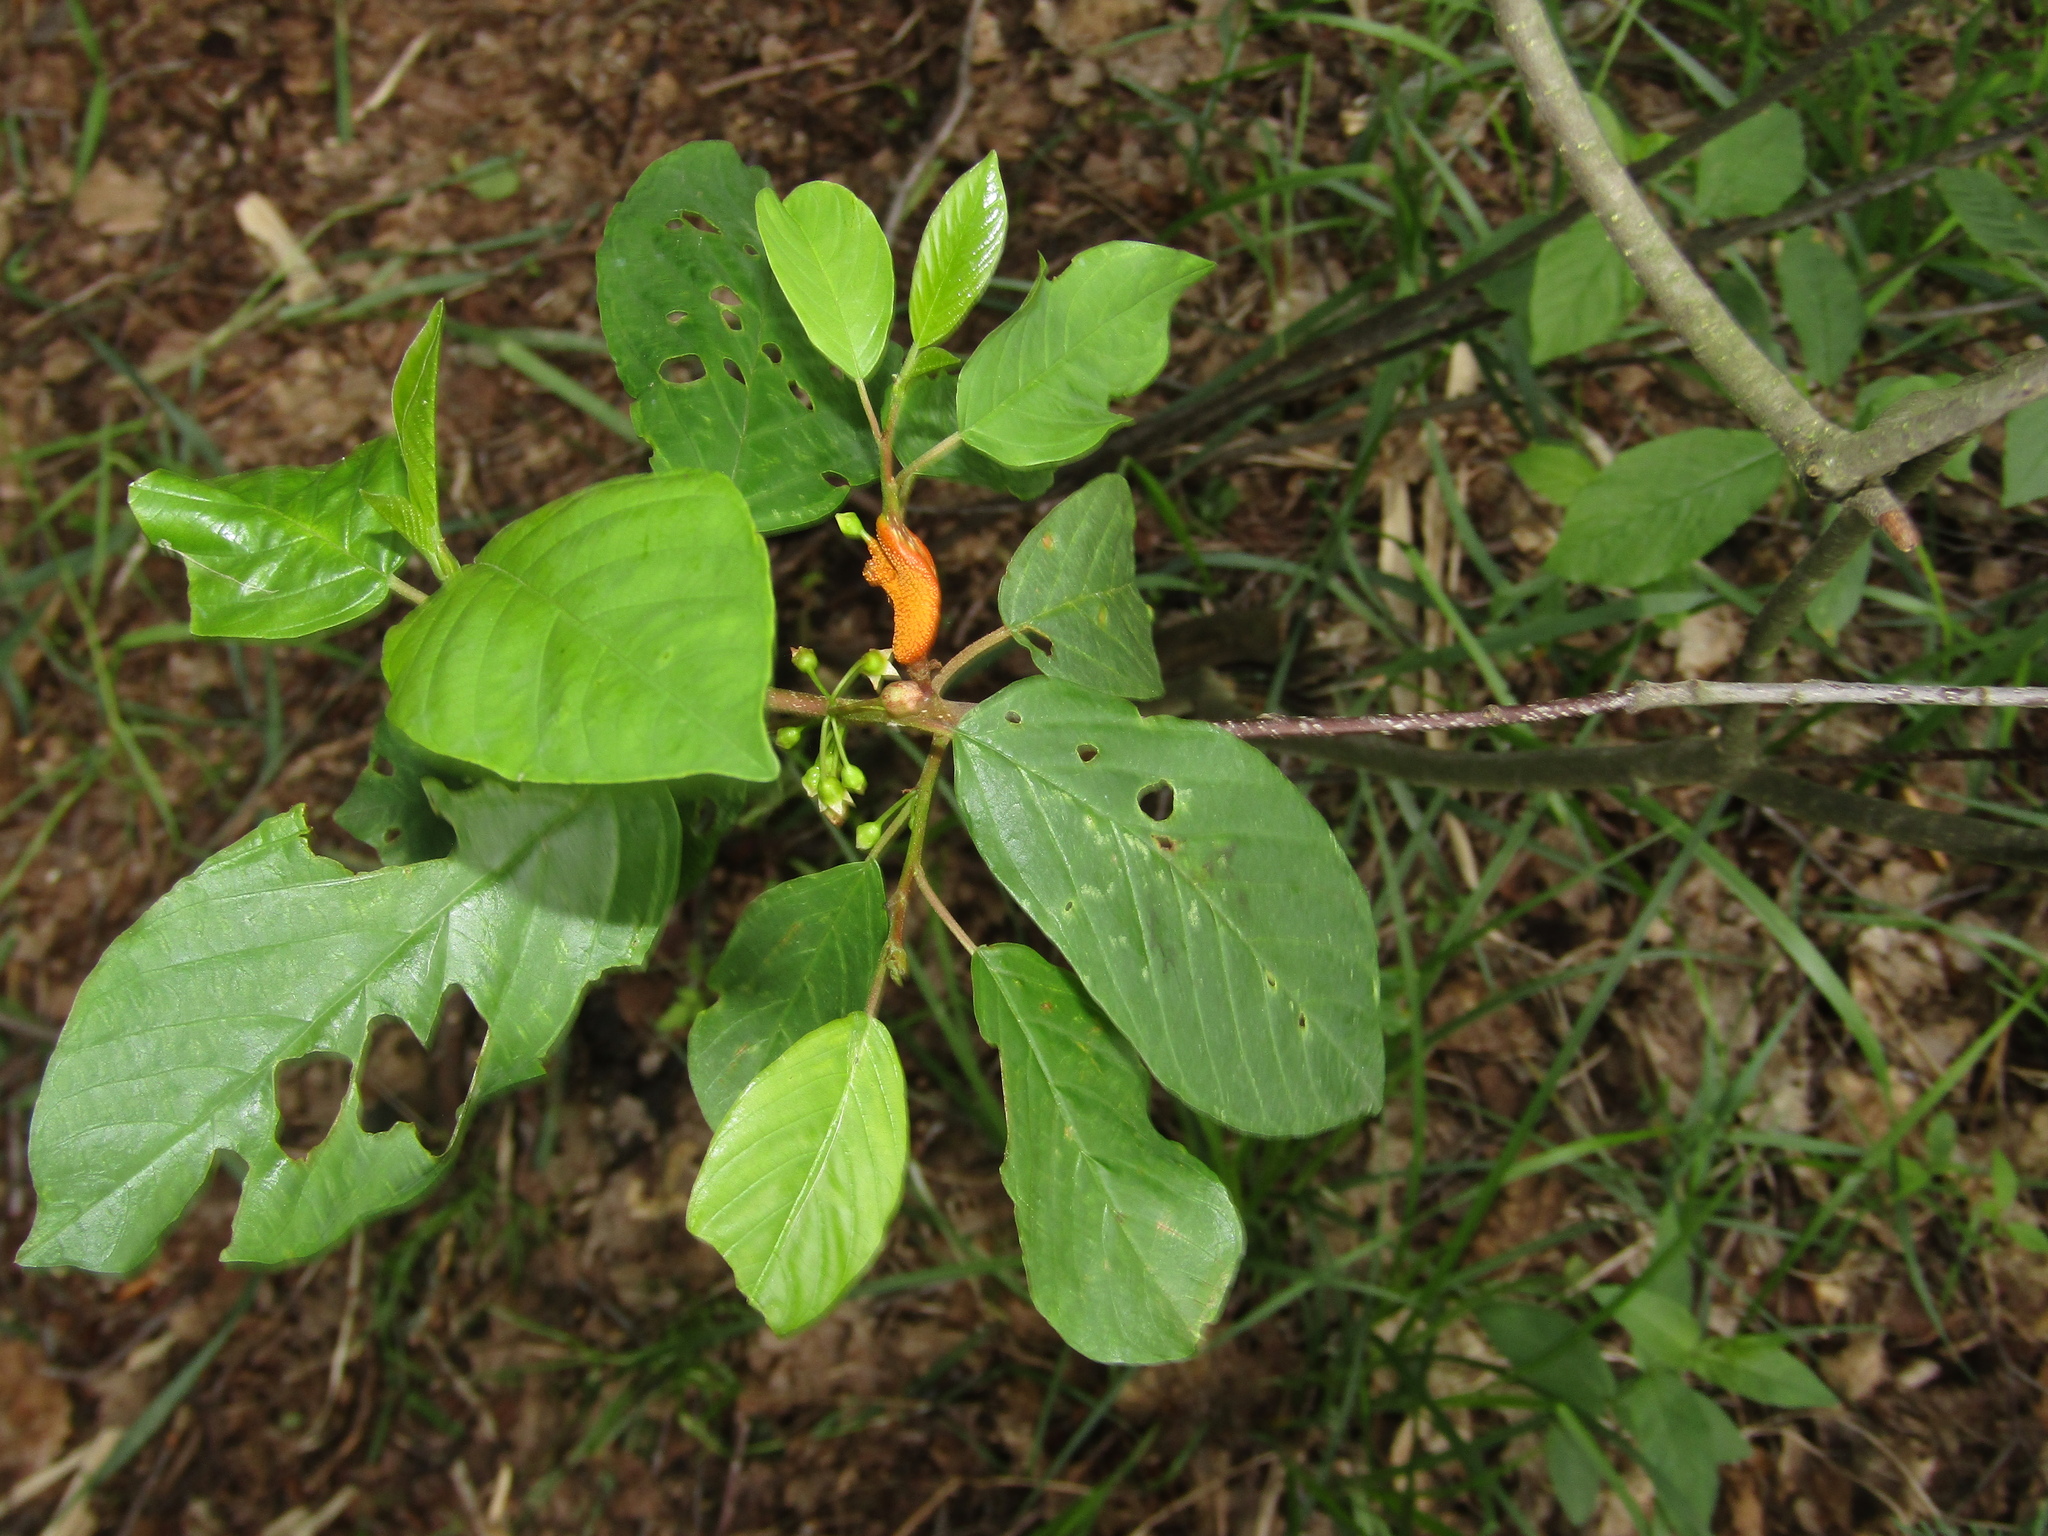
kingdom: Plantae
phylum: Tracheophyta
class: Magnoliopsida
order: Rosales
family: Rhamnaceae
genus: Frangula
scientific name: Frangula alnus
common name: Alder buckthorn
